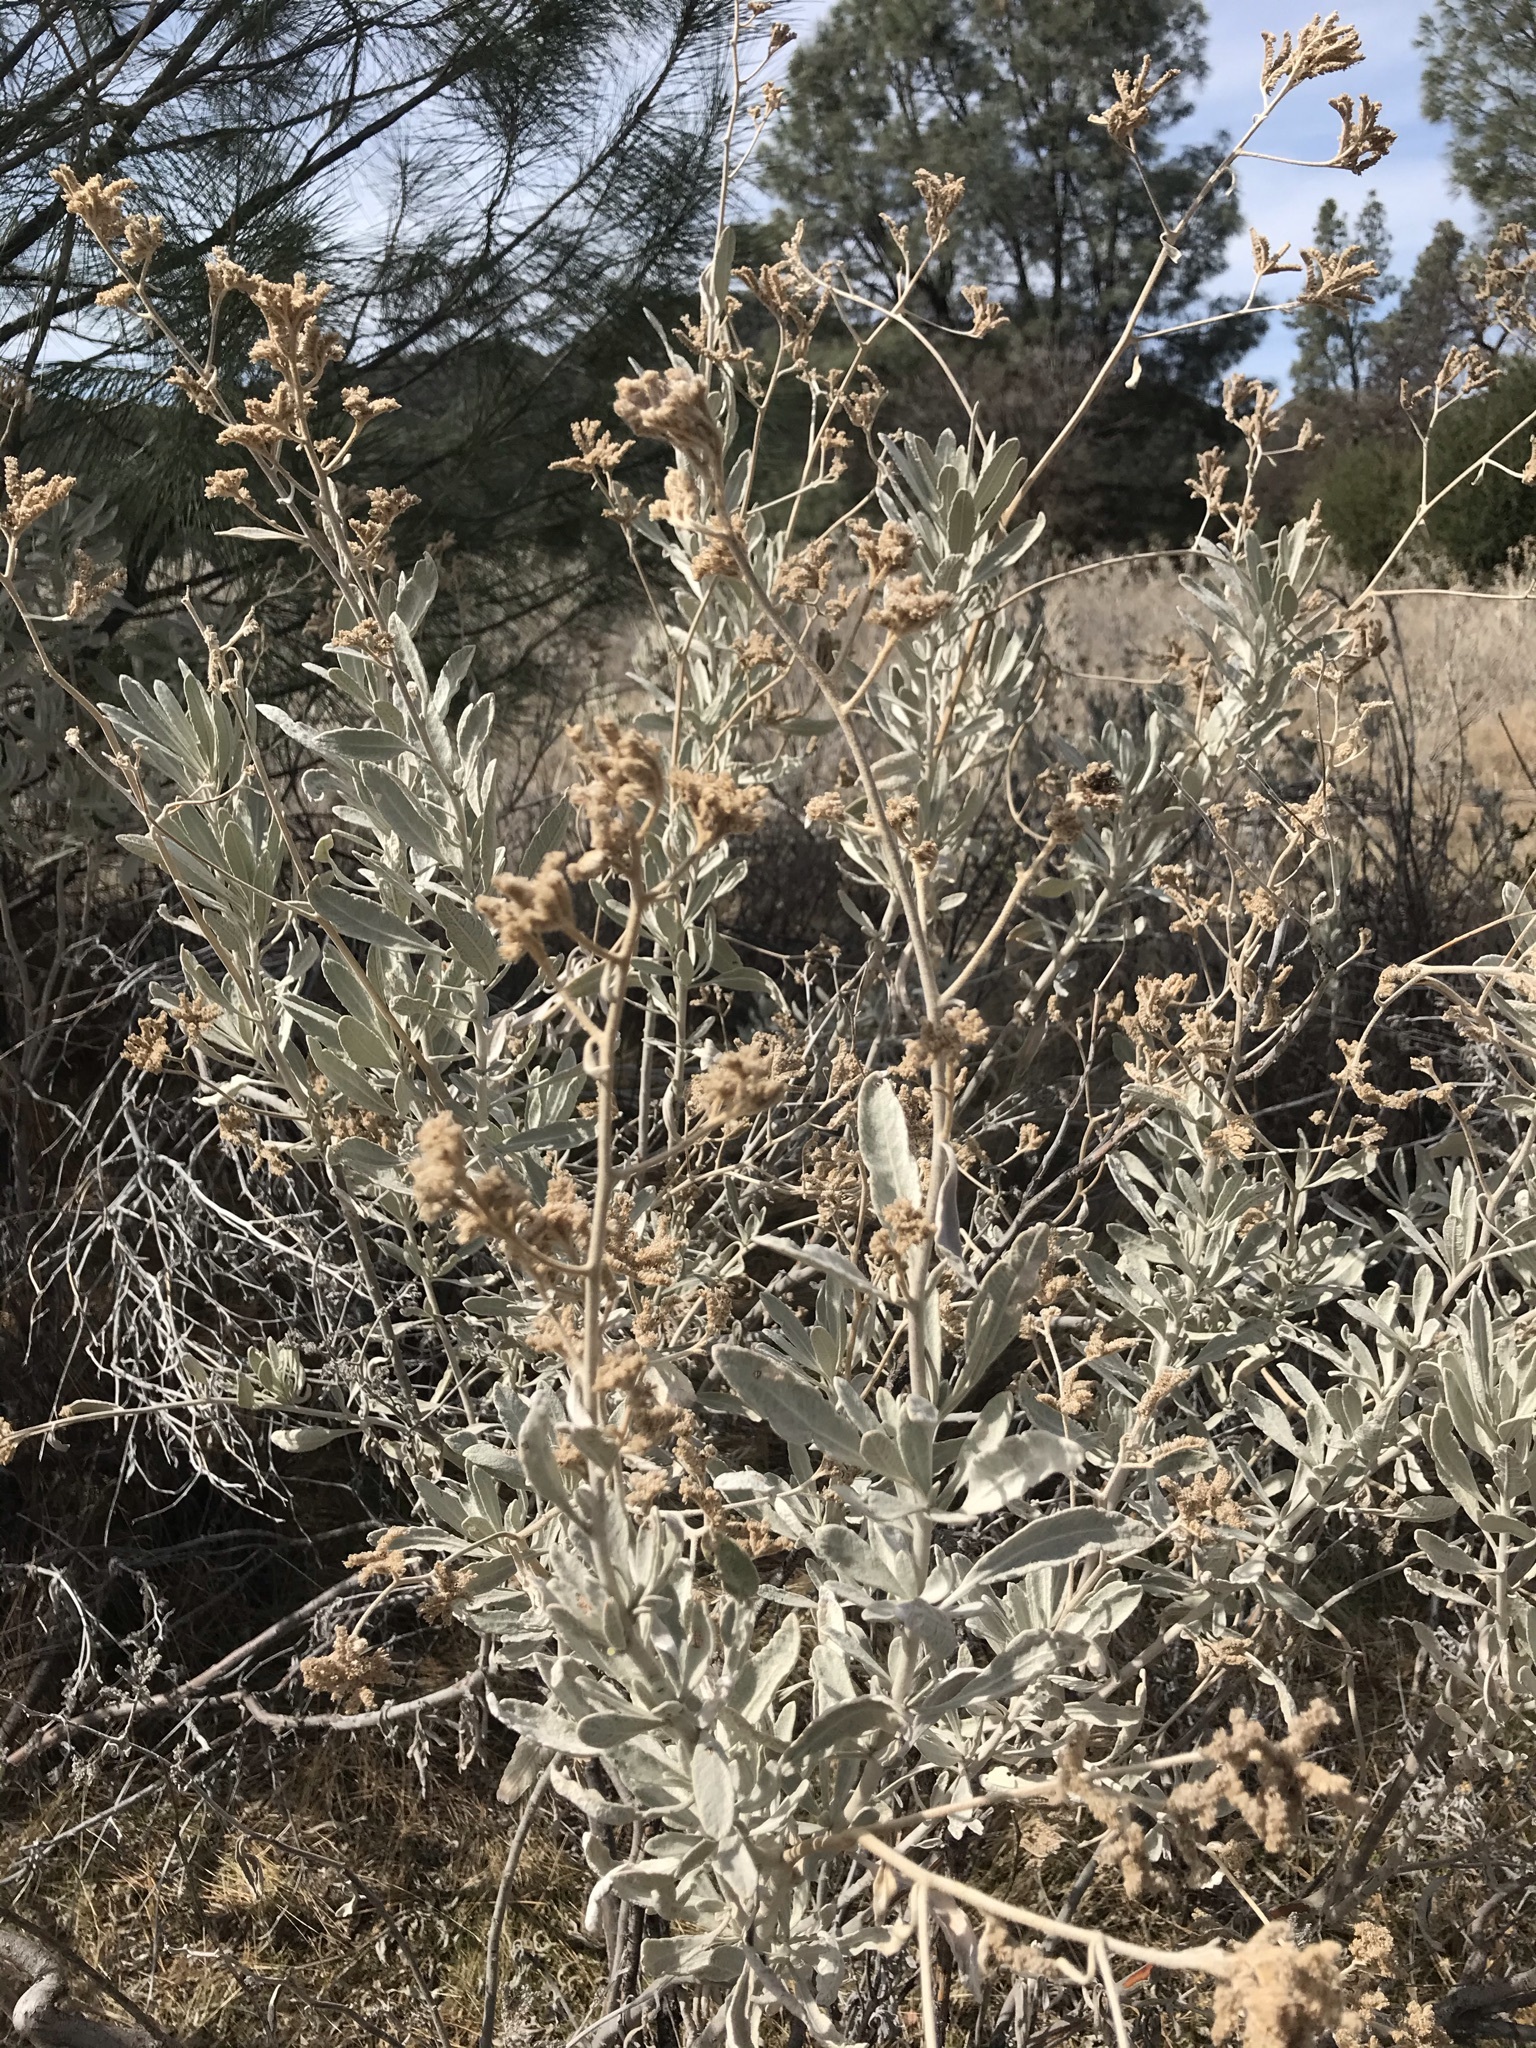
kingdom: Plantae
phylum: Tracheophyta
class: Magnoliopsida
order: Boraginales
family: Namaceae
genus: Eriodictyon
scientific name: Eriodictyon tomentosum
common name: Woolly yerba-santa
